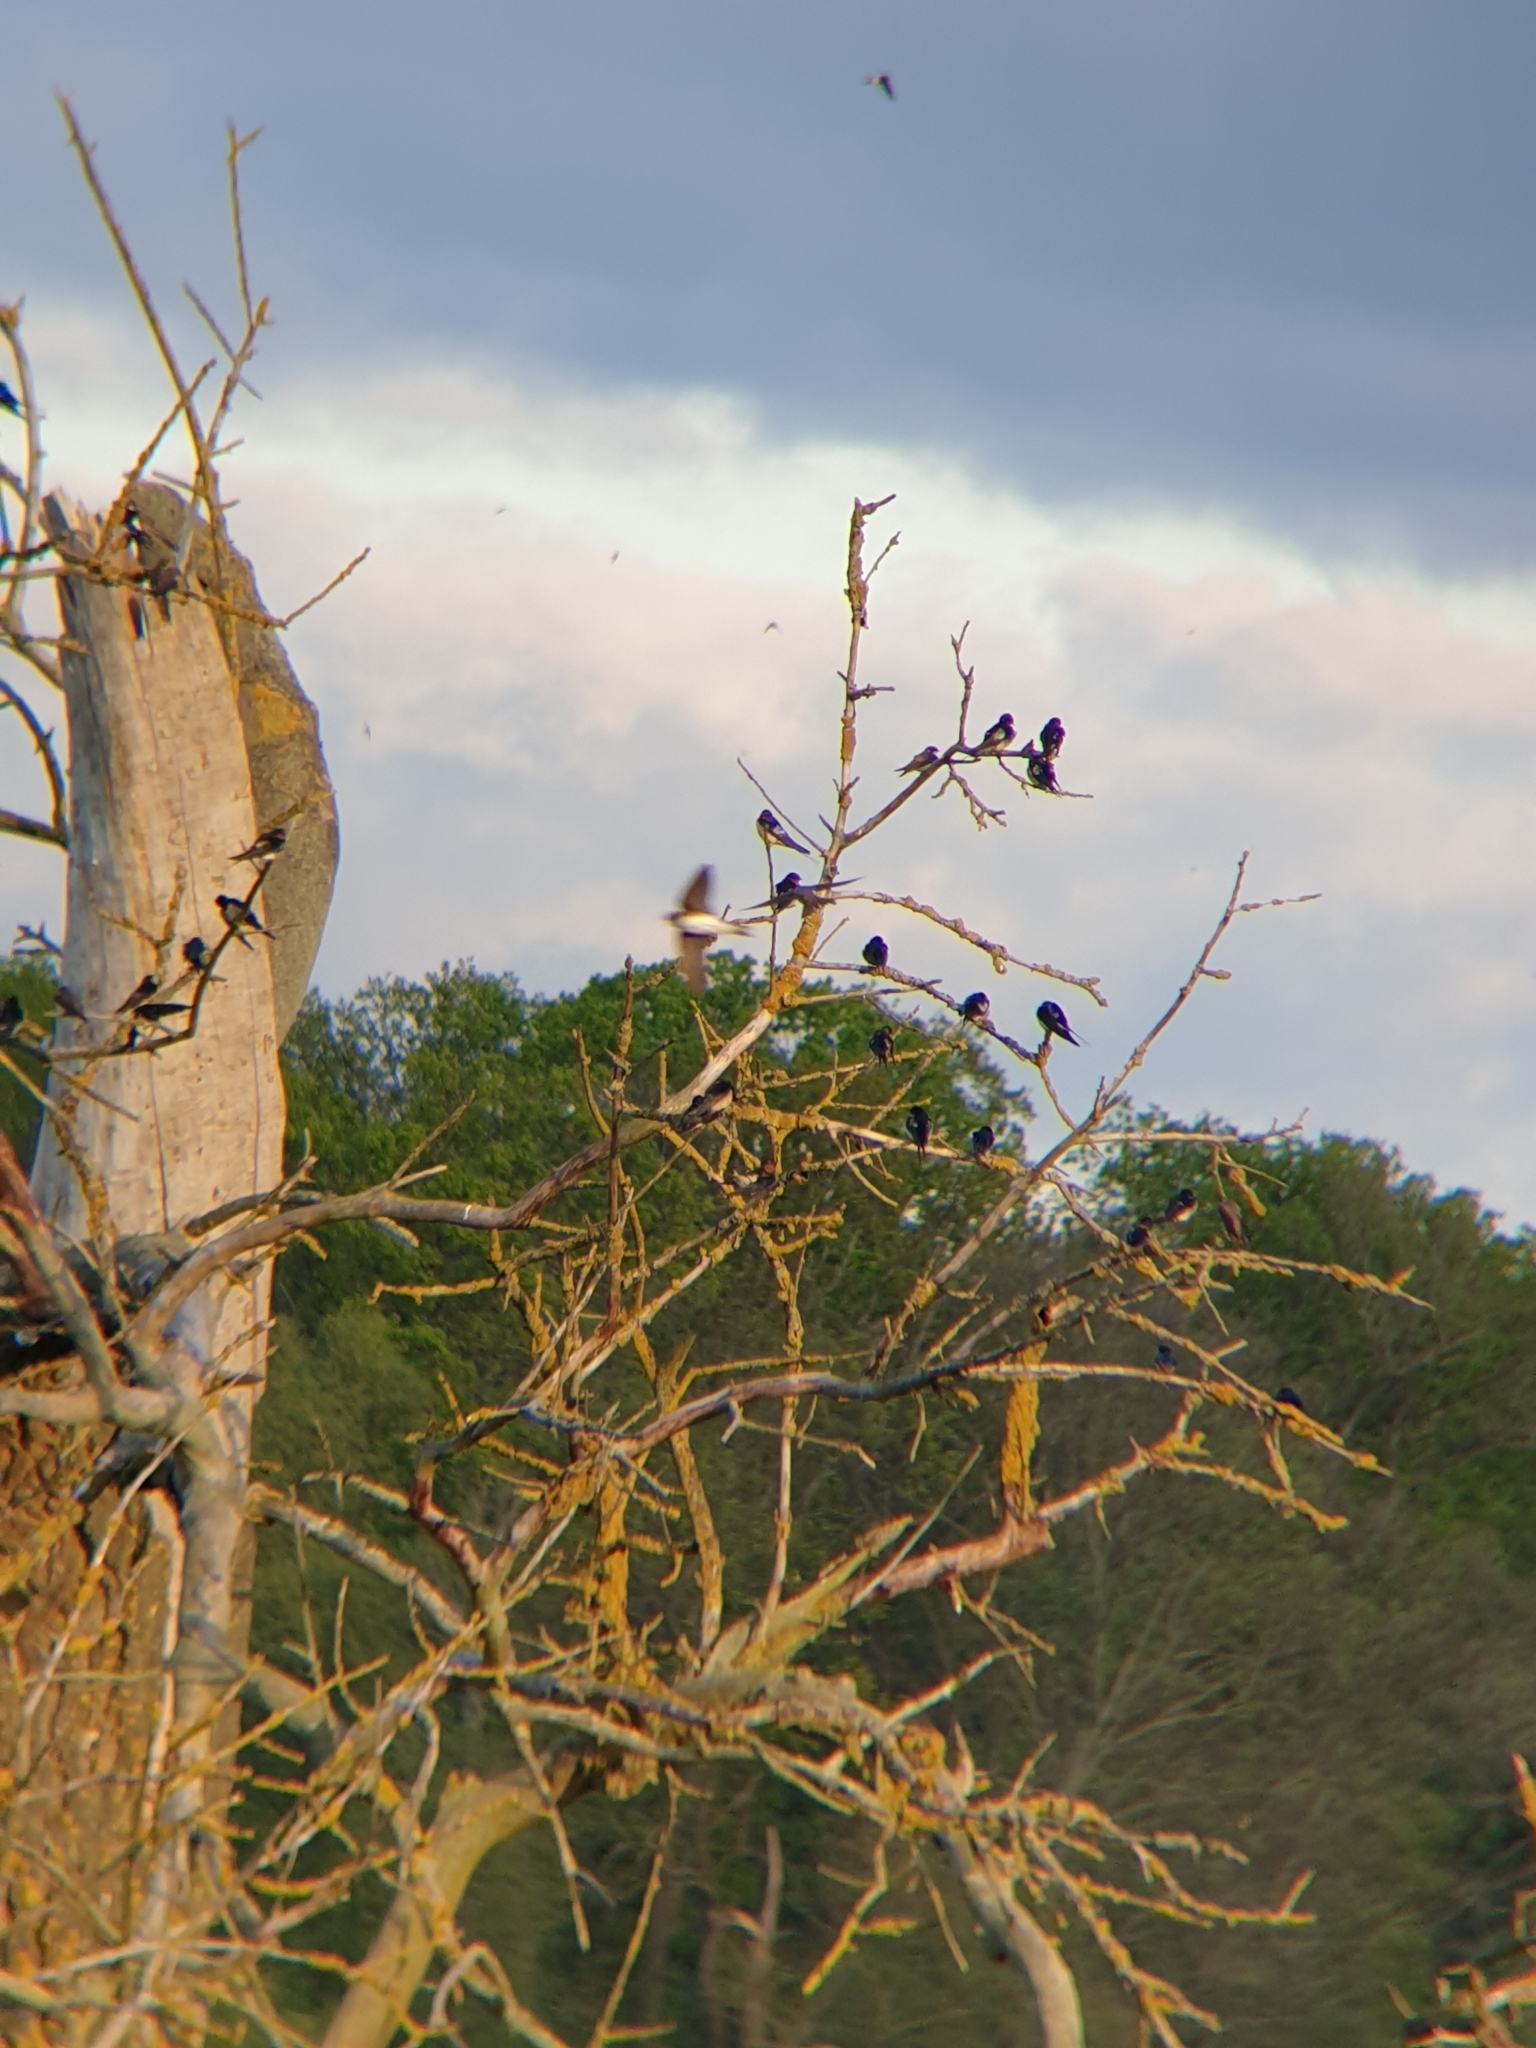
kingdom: Animalia
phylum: Chordata
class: Aves
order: Passeriformes
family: Hirundinidae
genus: Riparia
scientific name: Riparia riparia
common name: Sand martin
